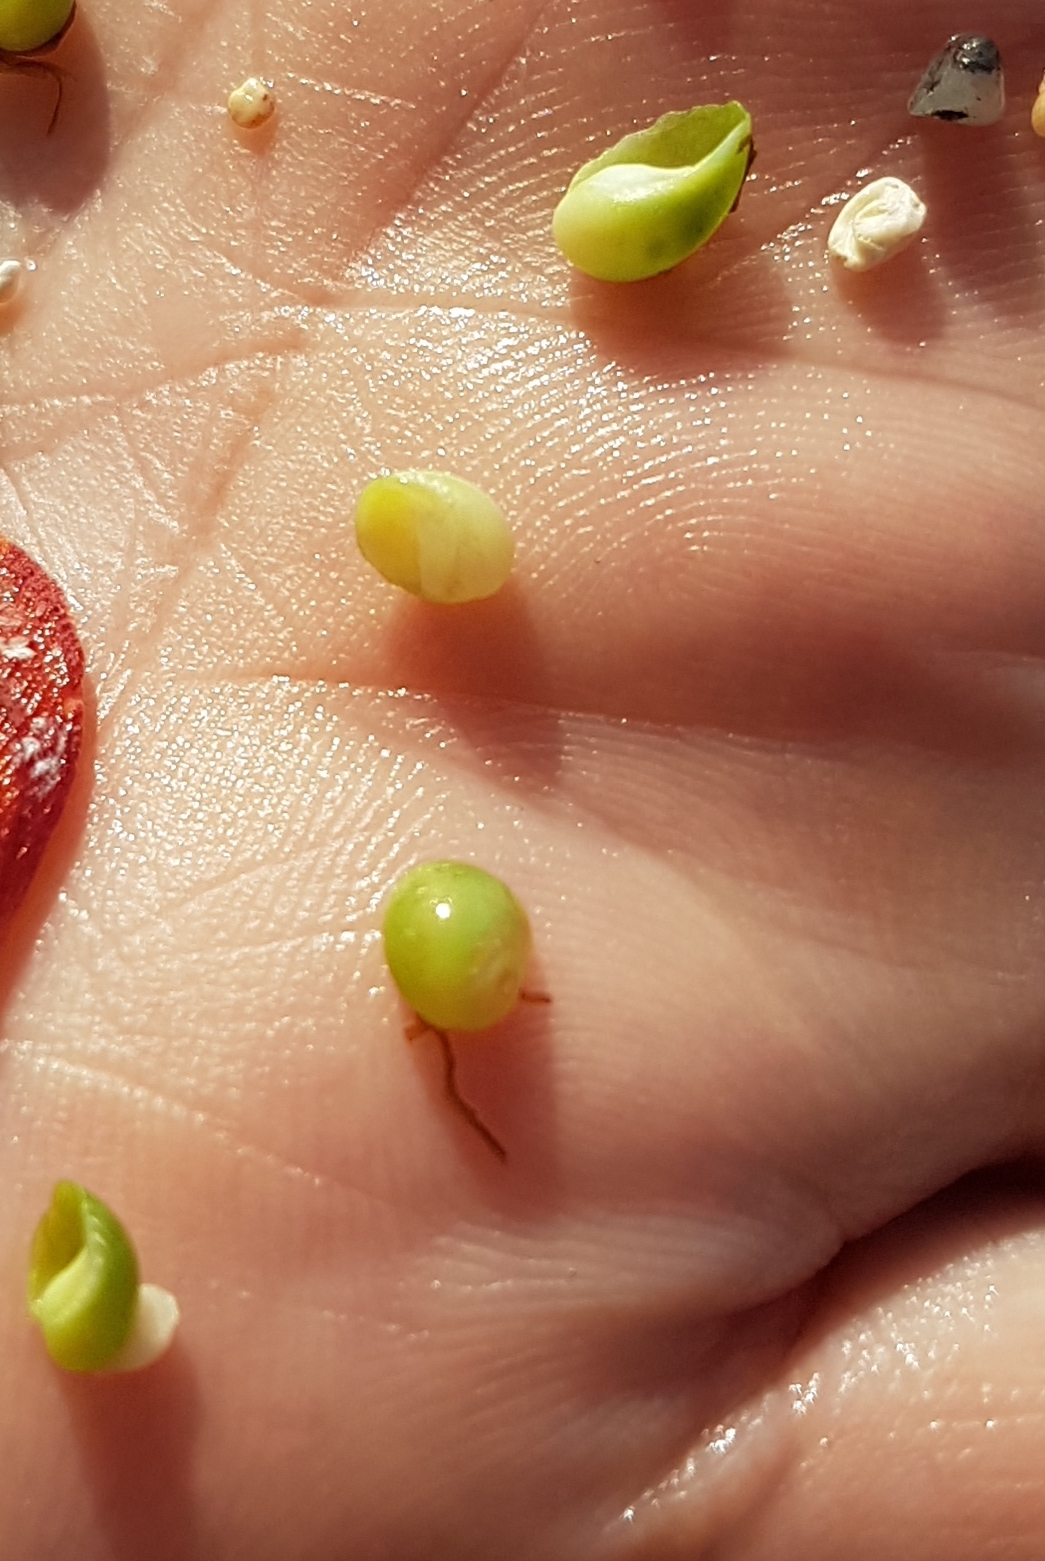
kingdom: Animalia
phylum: Mollusca
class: Gastropoda
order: Cycloneritida
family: Neritidae
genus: Smaragdia
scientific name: Smaragdia viridis
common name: Emerald nerite
